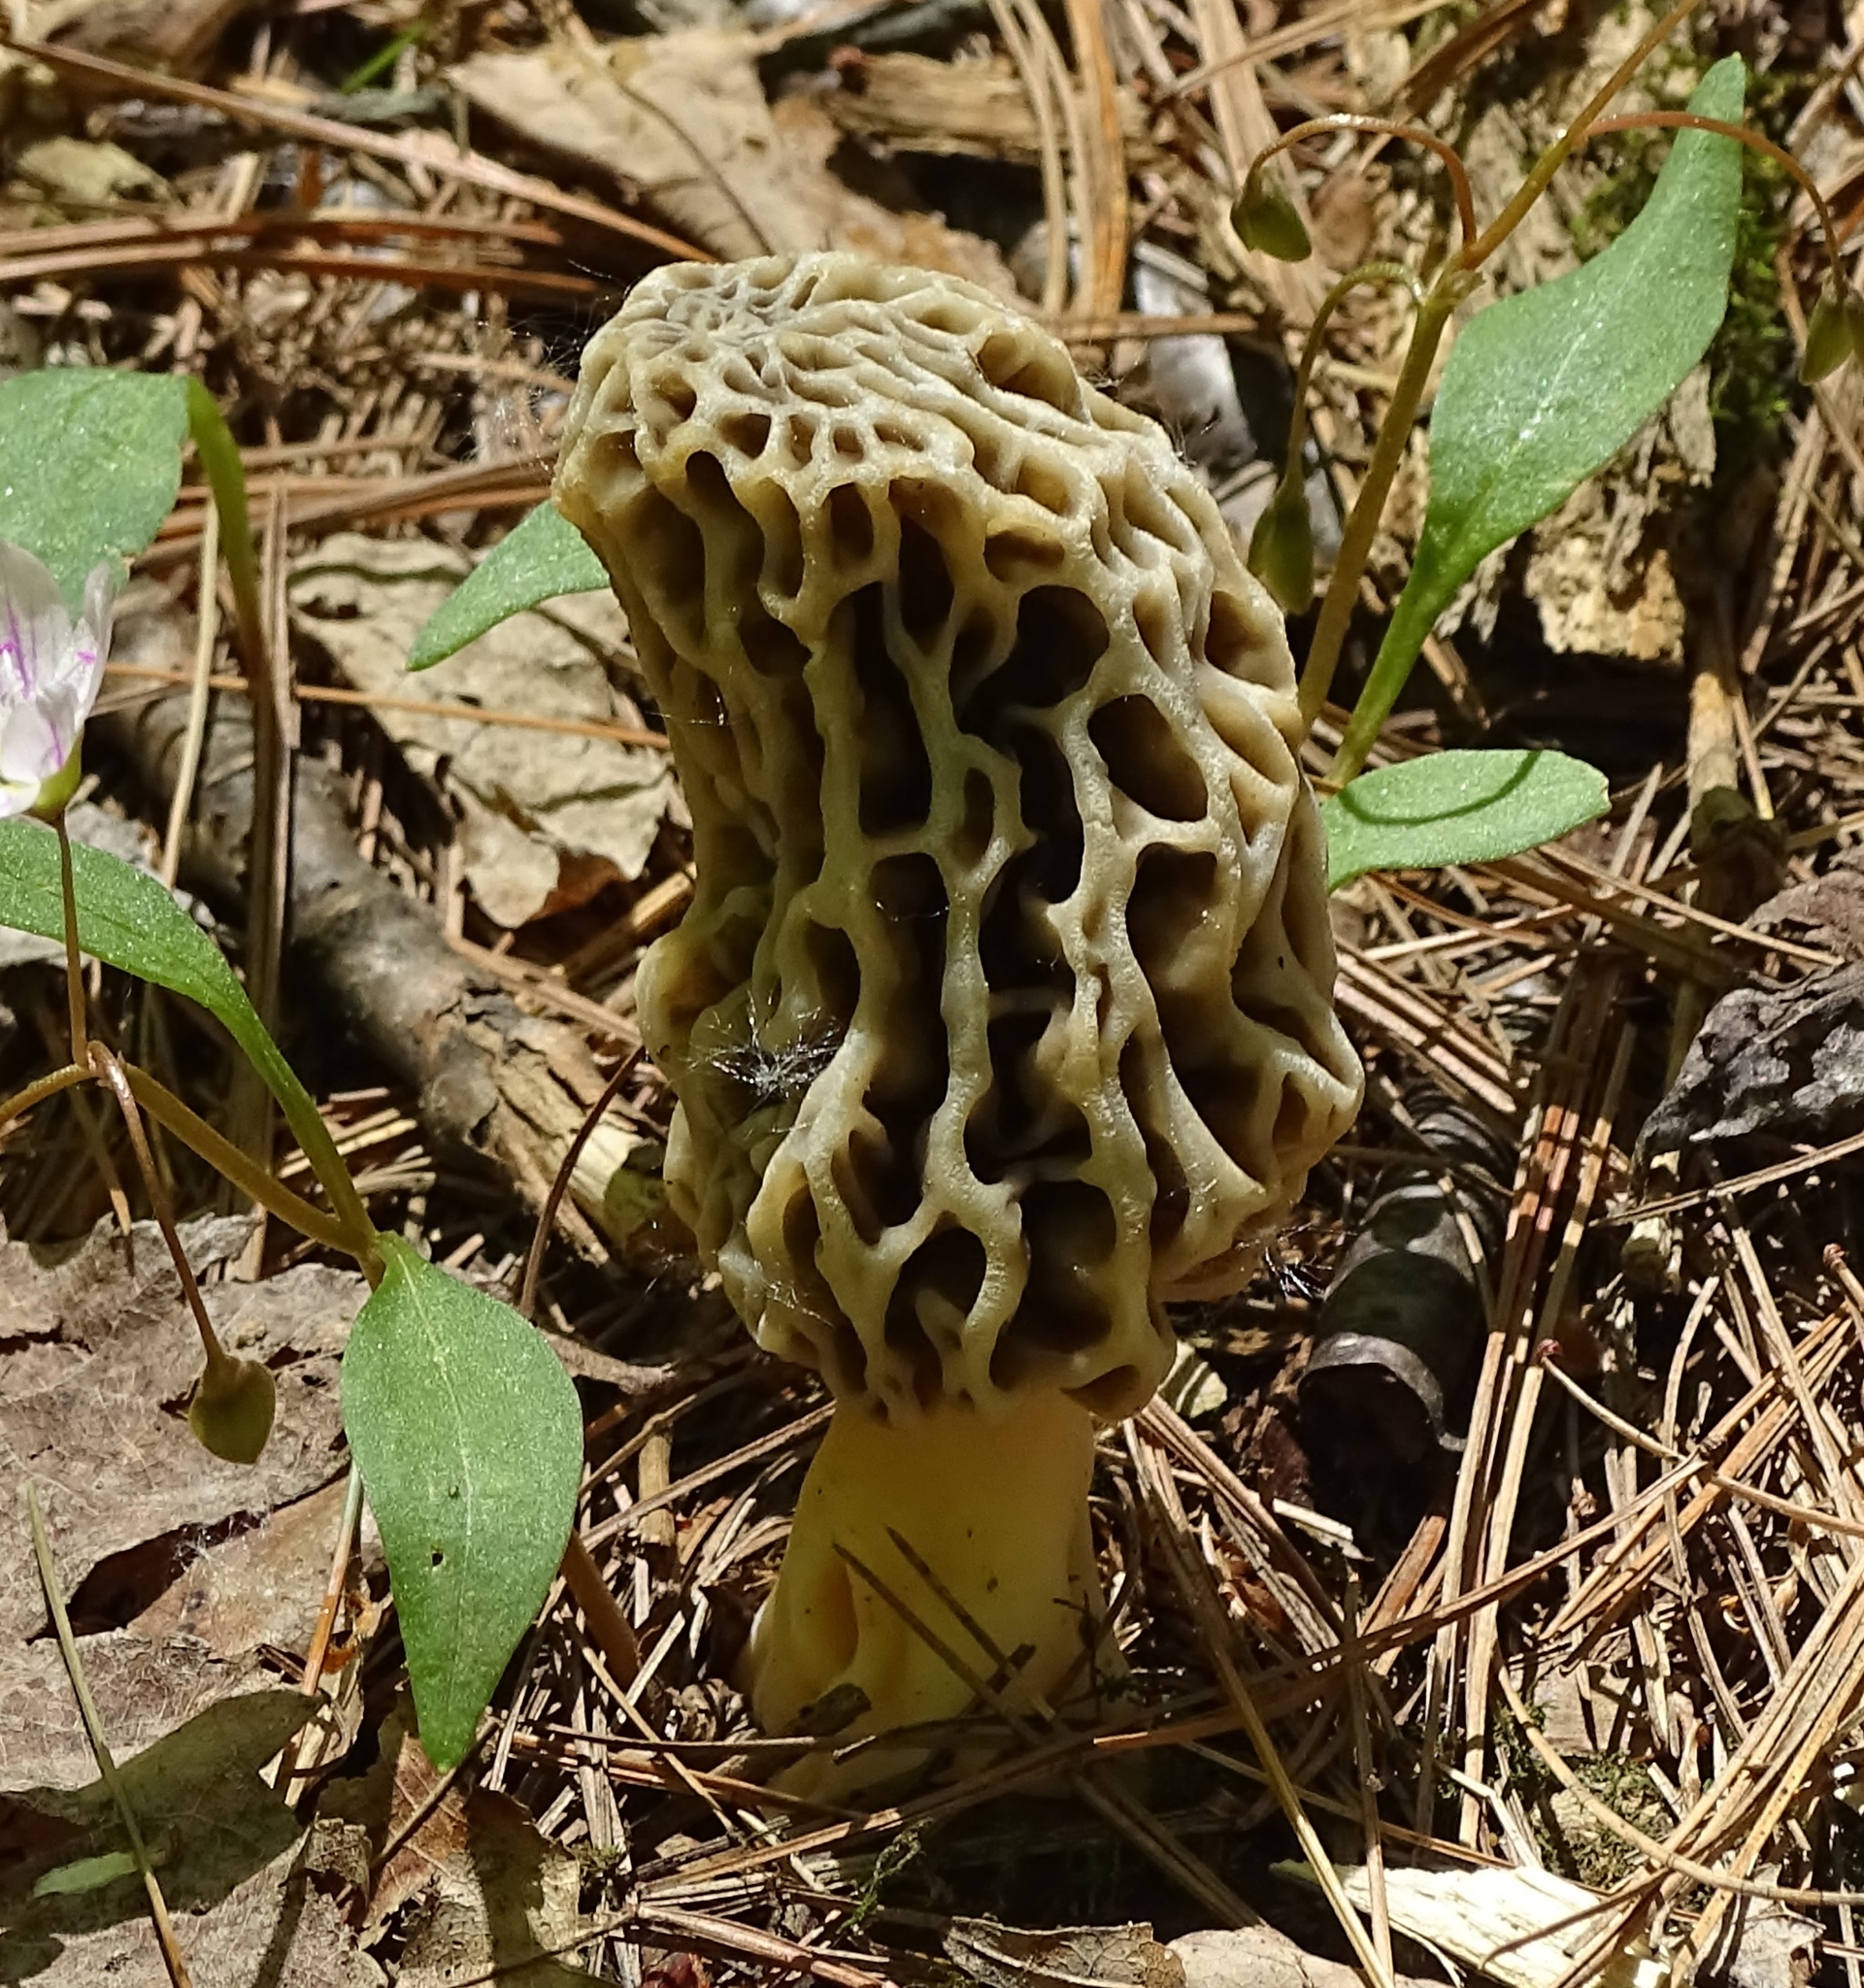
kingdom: Fungi
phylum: Ascomycota
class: Pezizomycetes
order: Pezizales
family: Morchellaceae
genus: Morchella
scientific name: Morchella americana
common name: White morel
